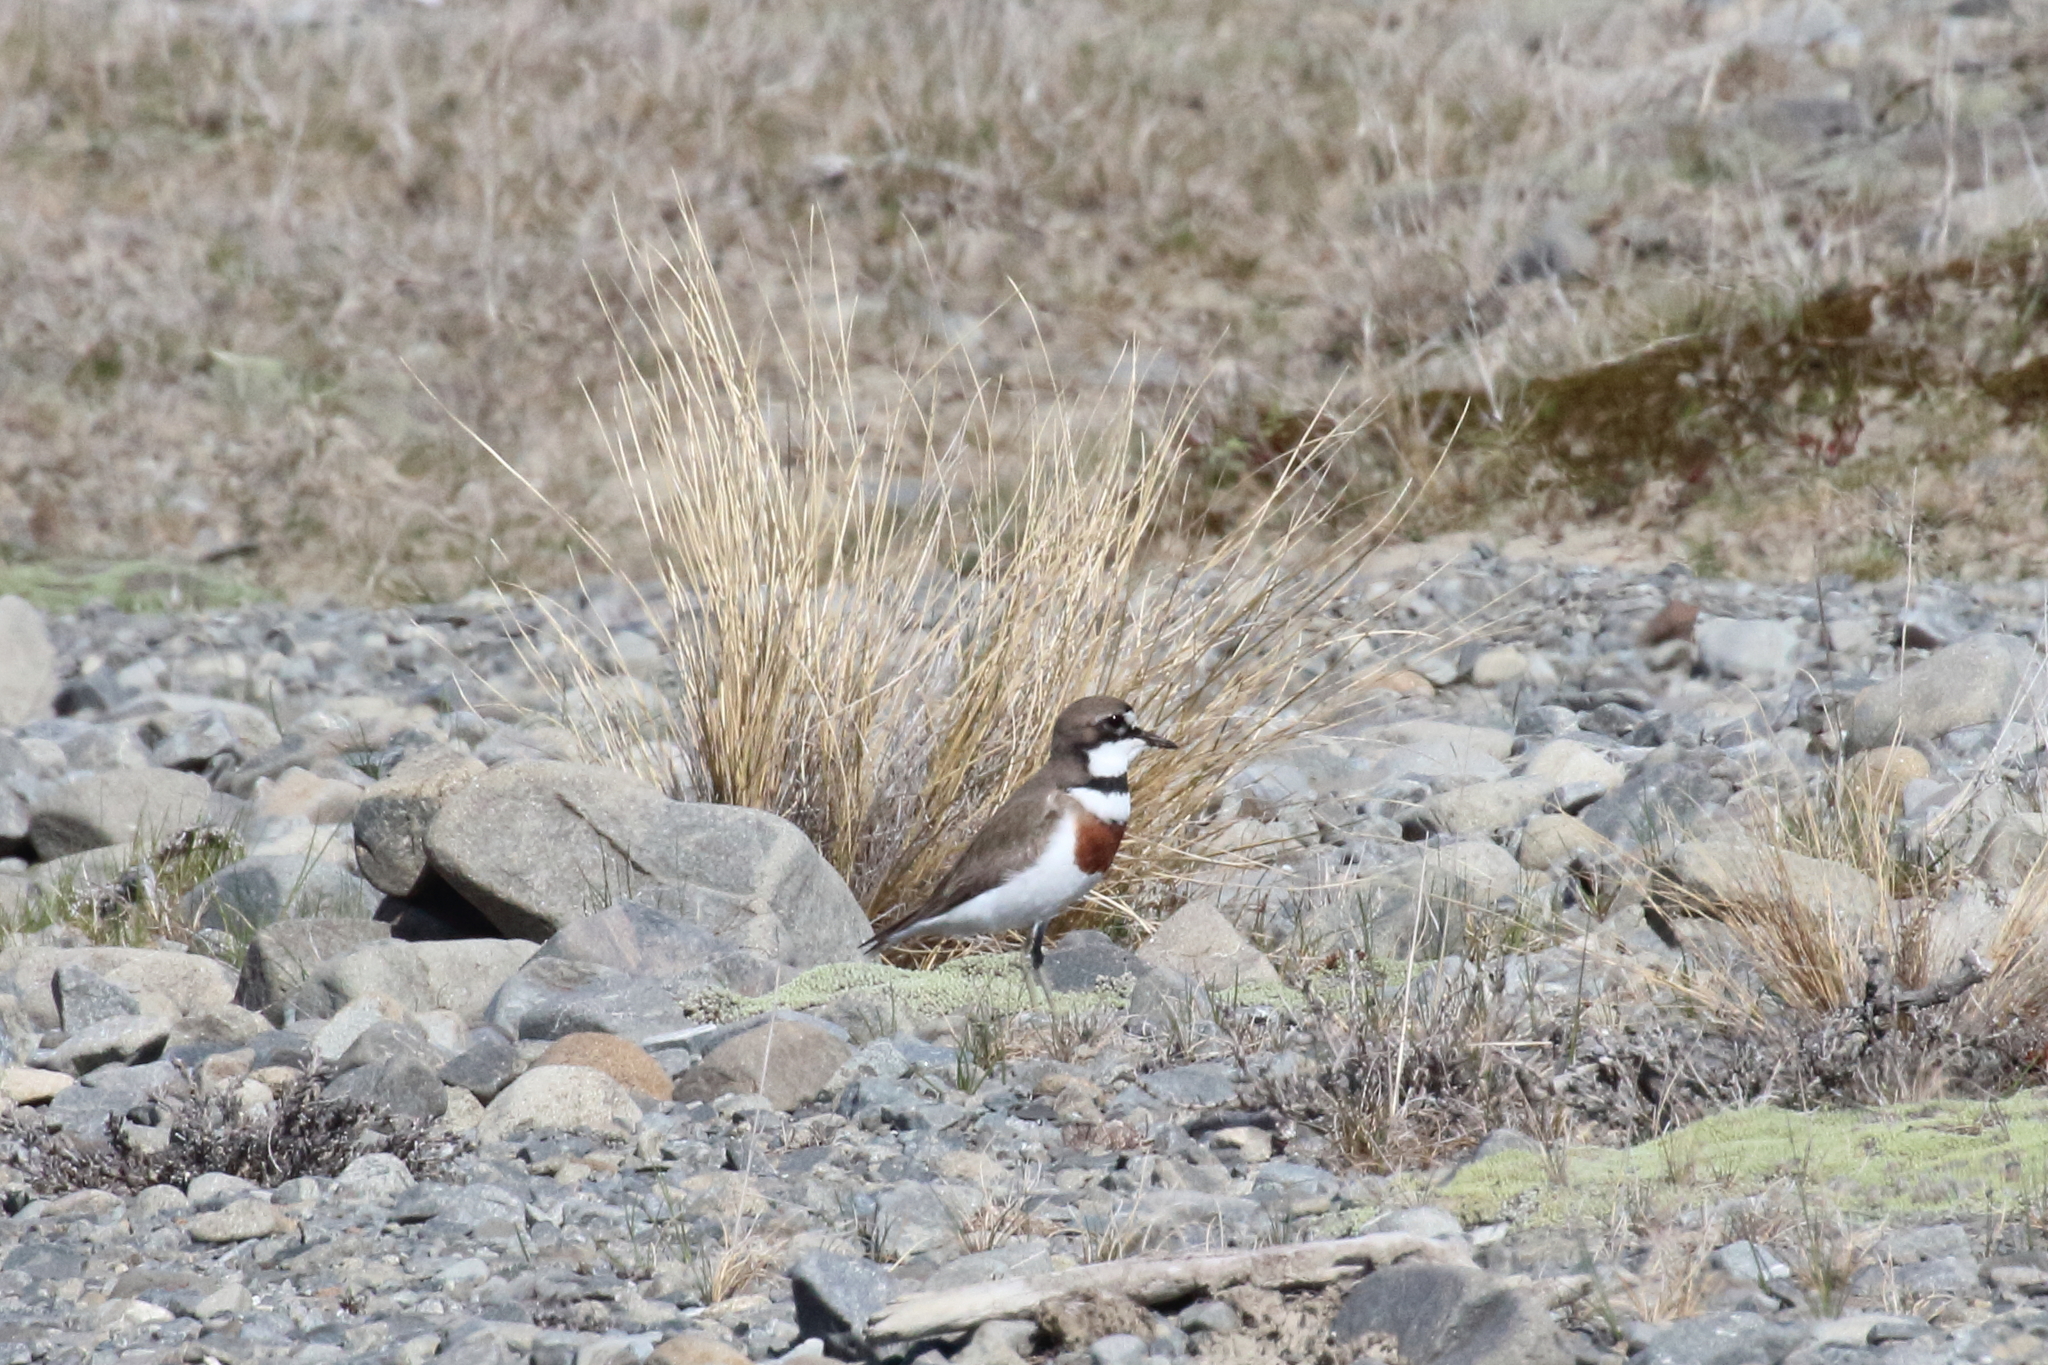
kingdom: Animalia
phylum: Chordata
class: Aves
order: Charadriiformes
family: Charadriidae
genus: Anarhynchus
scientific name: Anarhynchus
